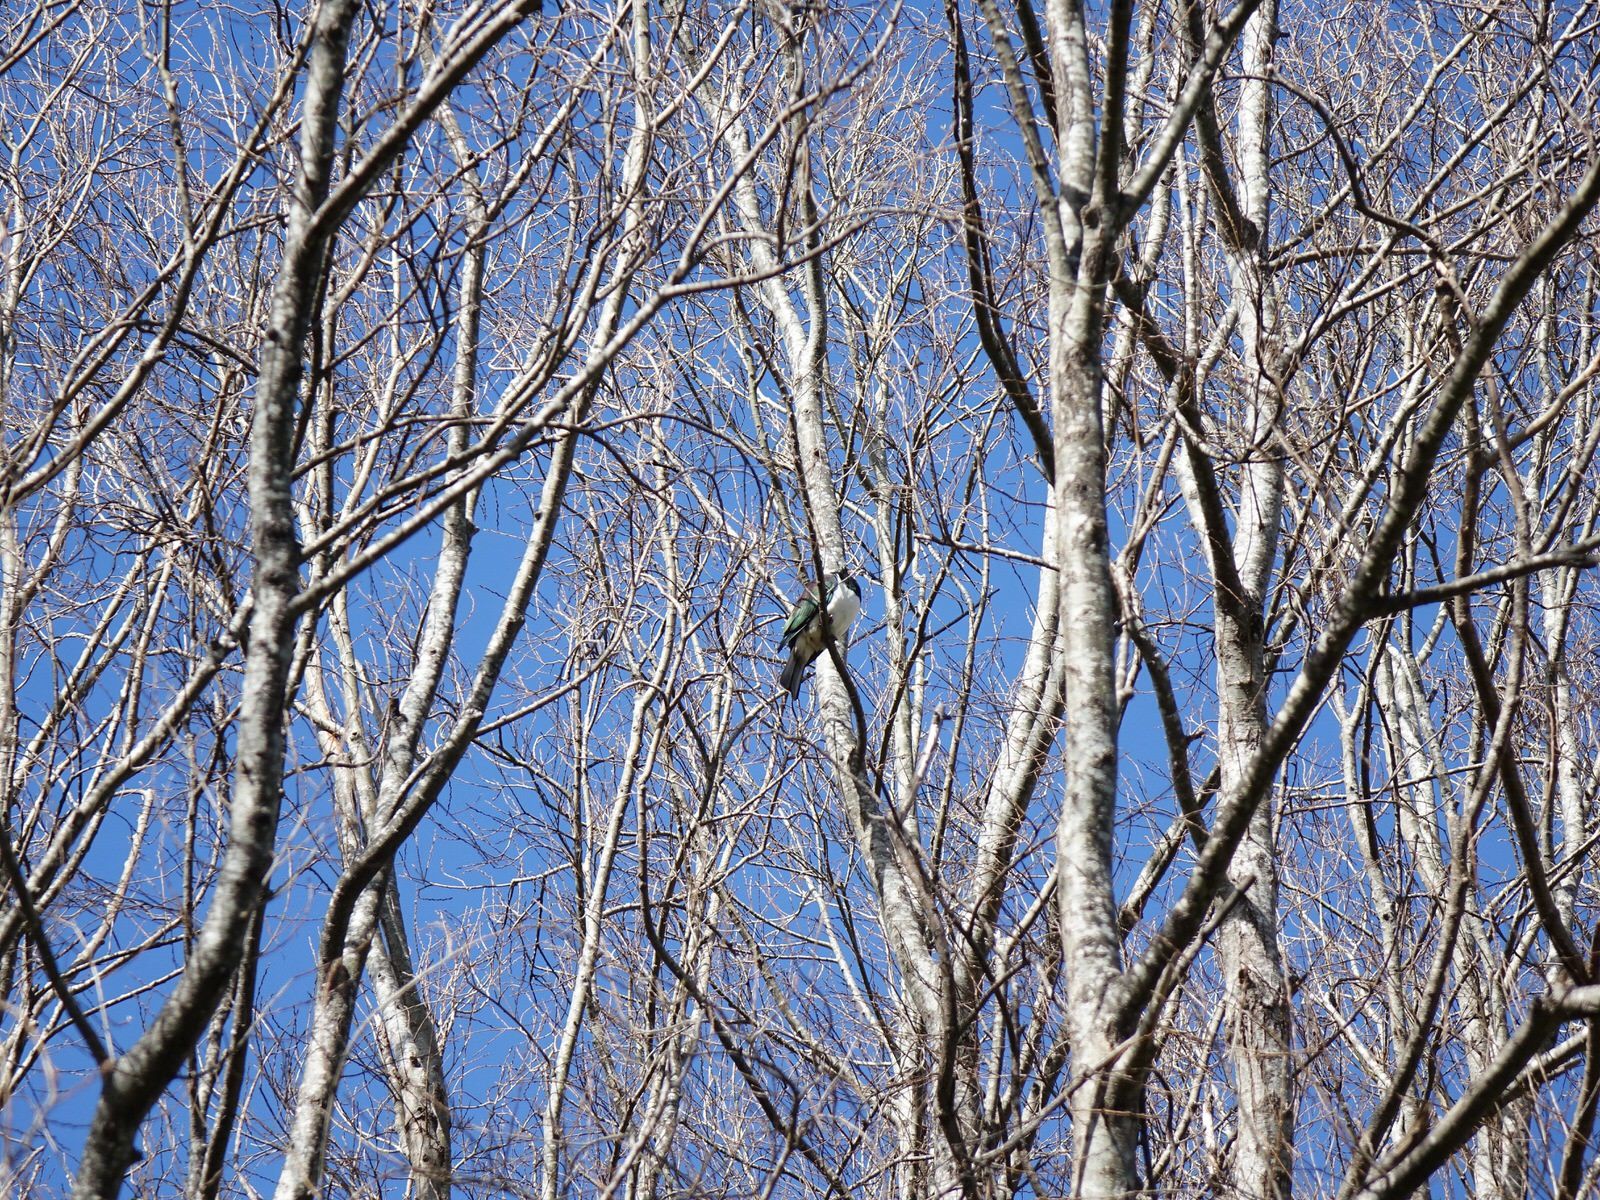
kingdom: Animalia
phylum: Chordata
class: Aves
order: Columbiformes
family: Columbidae
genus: Hemiphaga
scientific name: Hemiphaga novaeseelandiae
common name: New zealand pigeon
